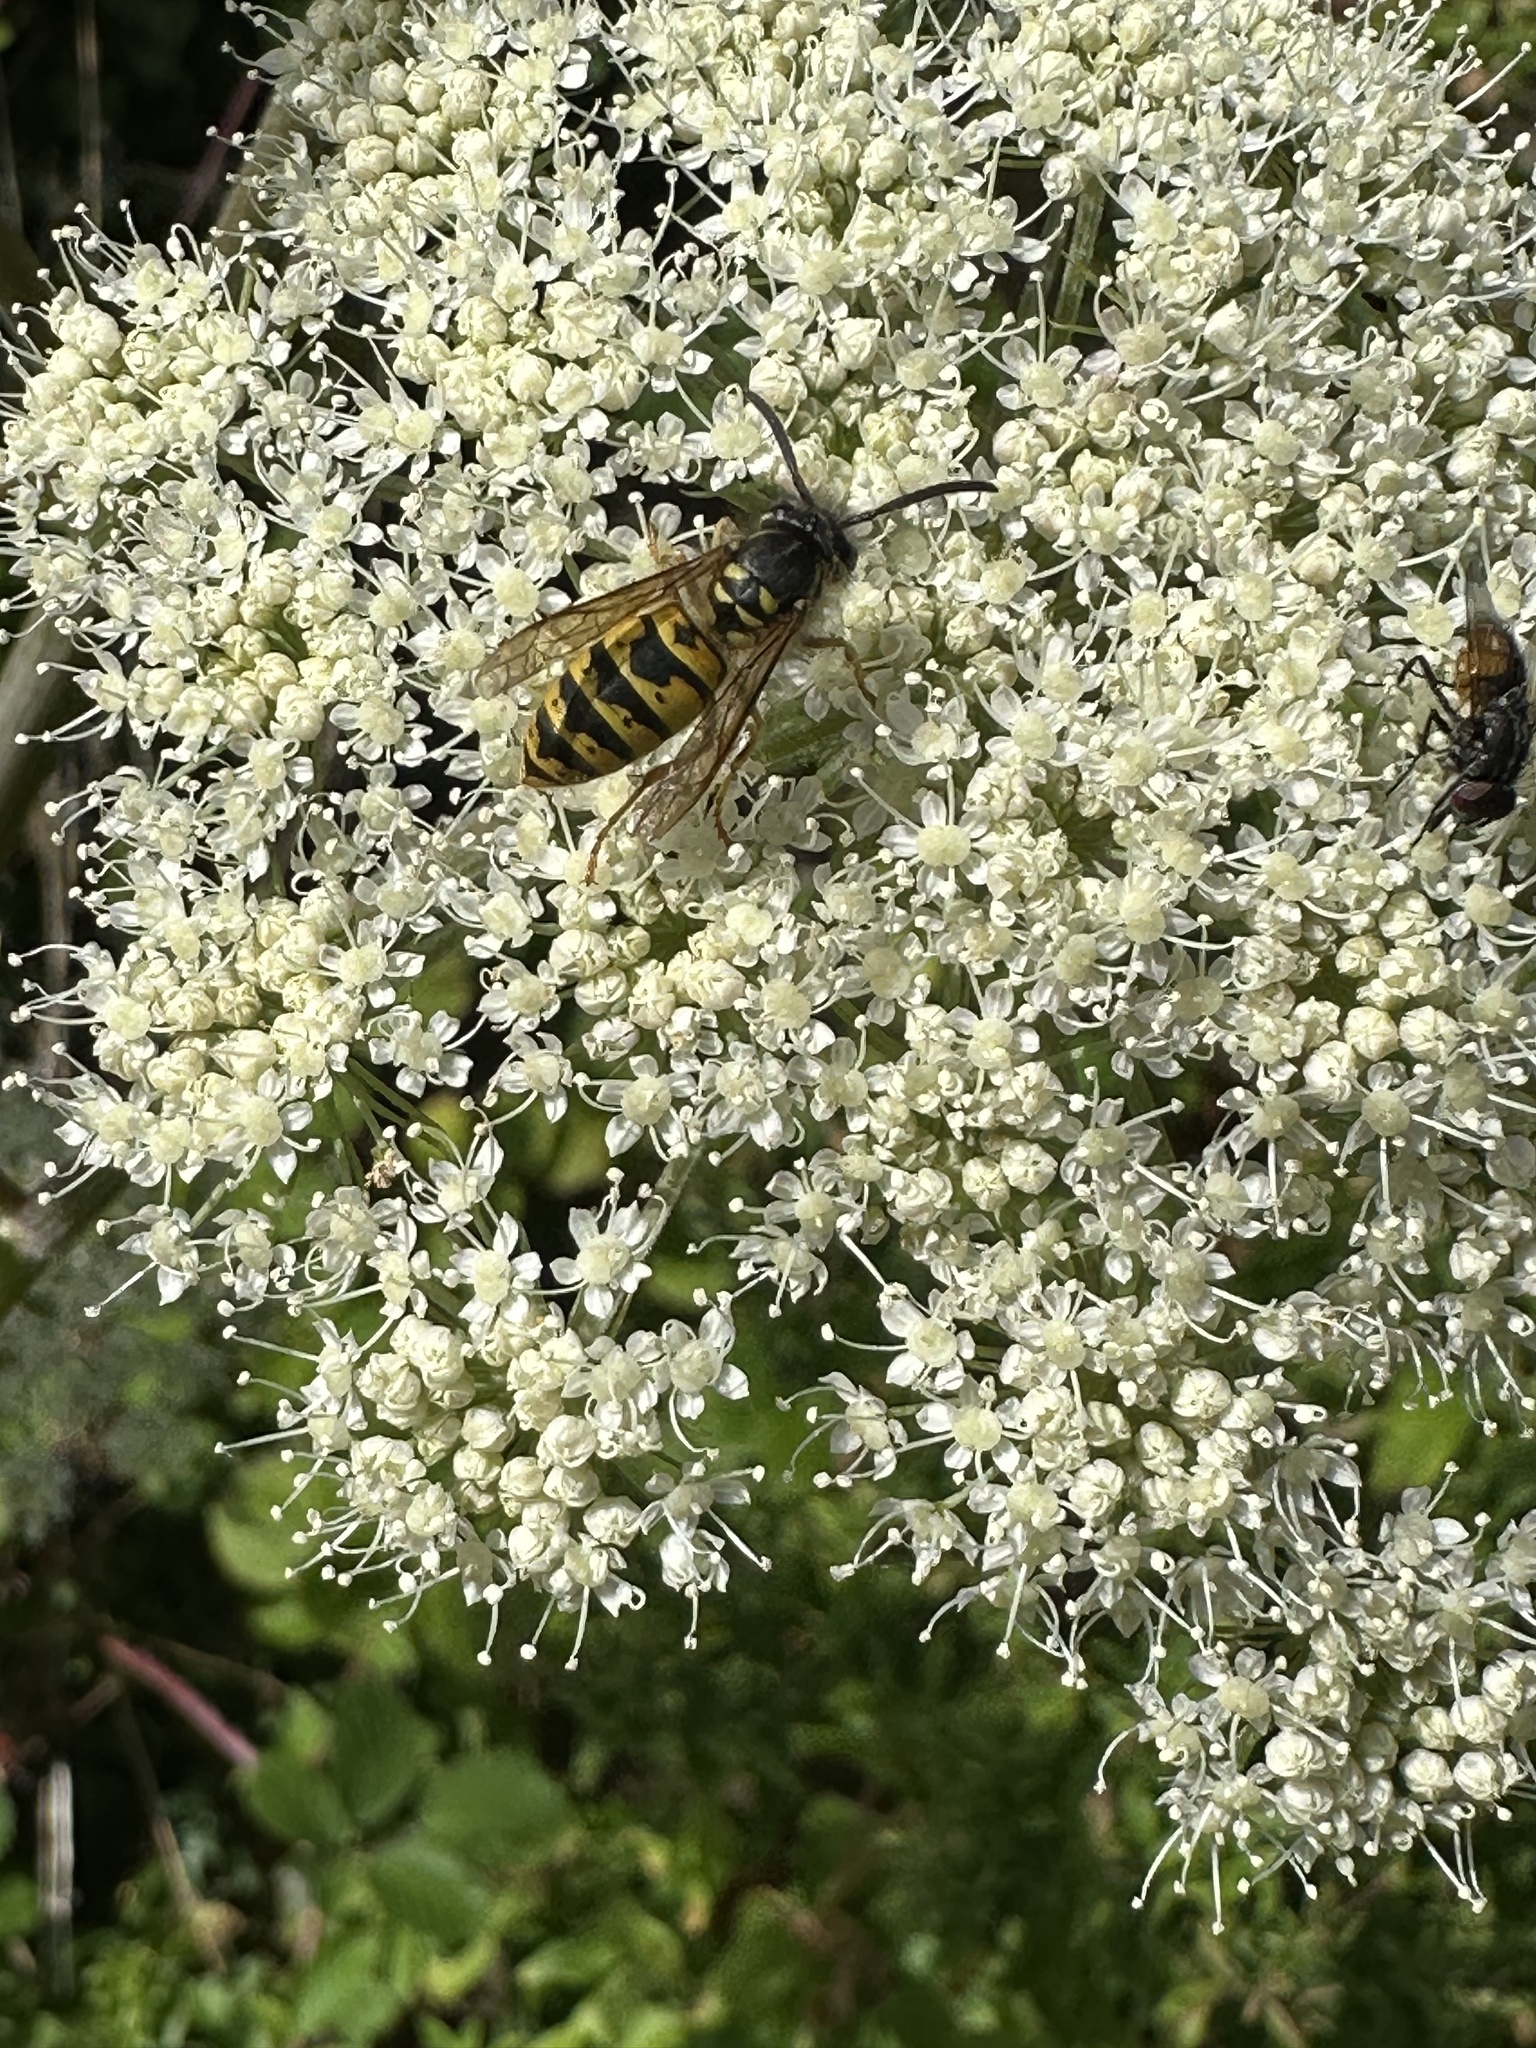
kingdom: Animalia
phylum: Arthropoda
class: Insecta
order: Hymenoptera
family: Vespidae
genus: Vespula
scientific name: Vespula vulgaris
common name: Common wasp
